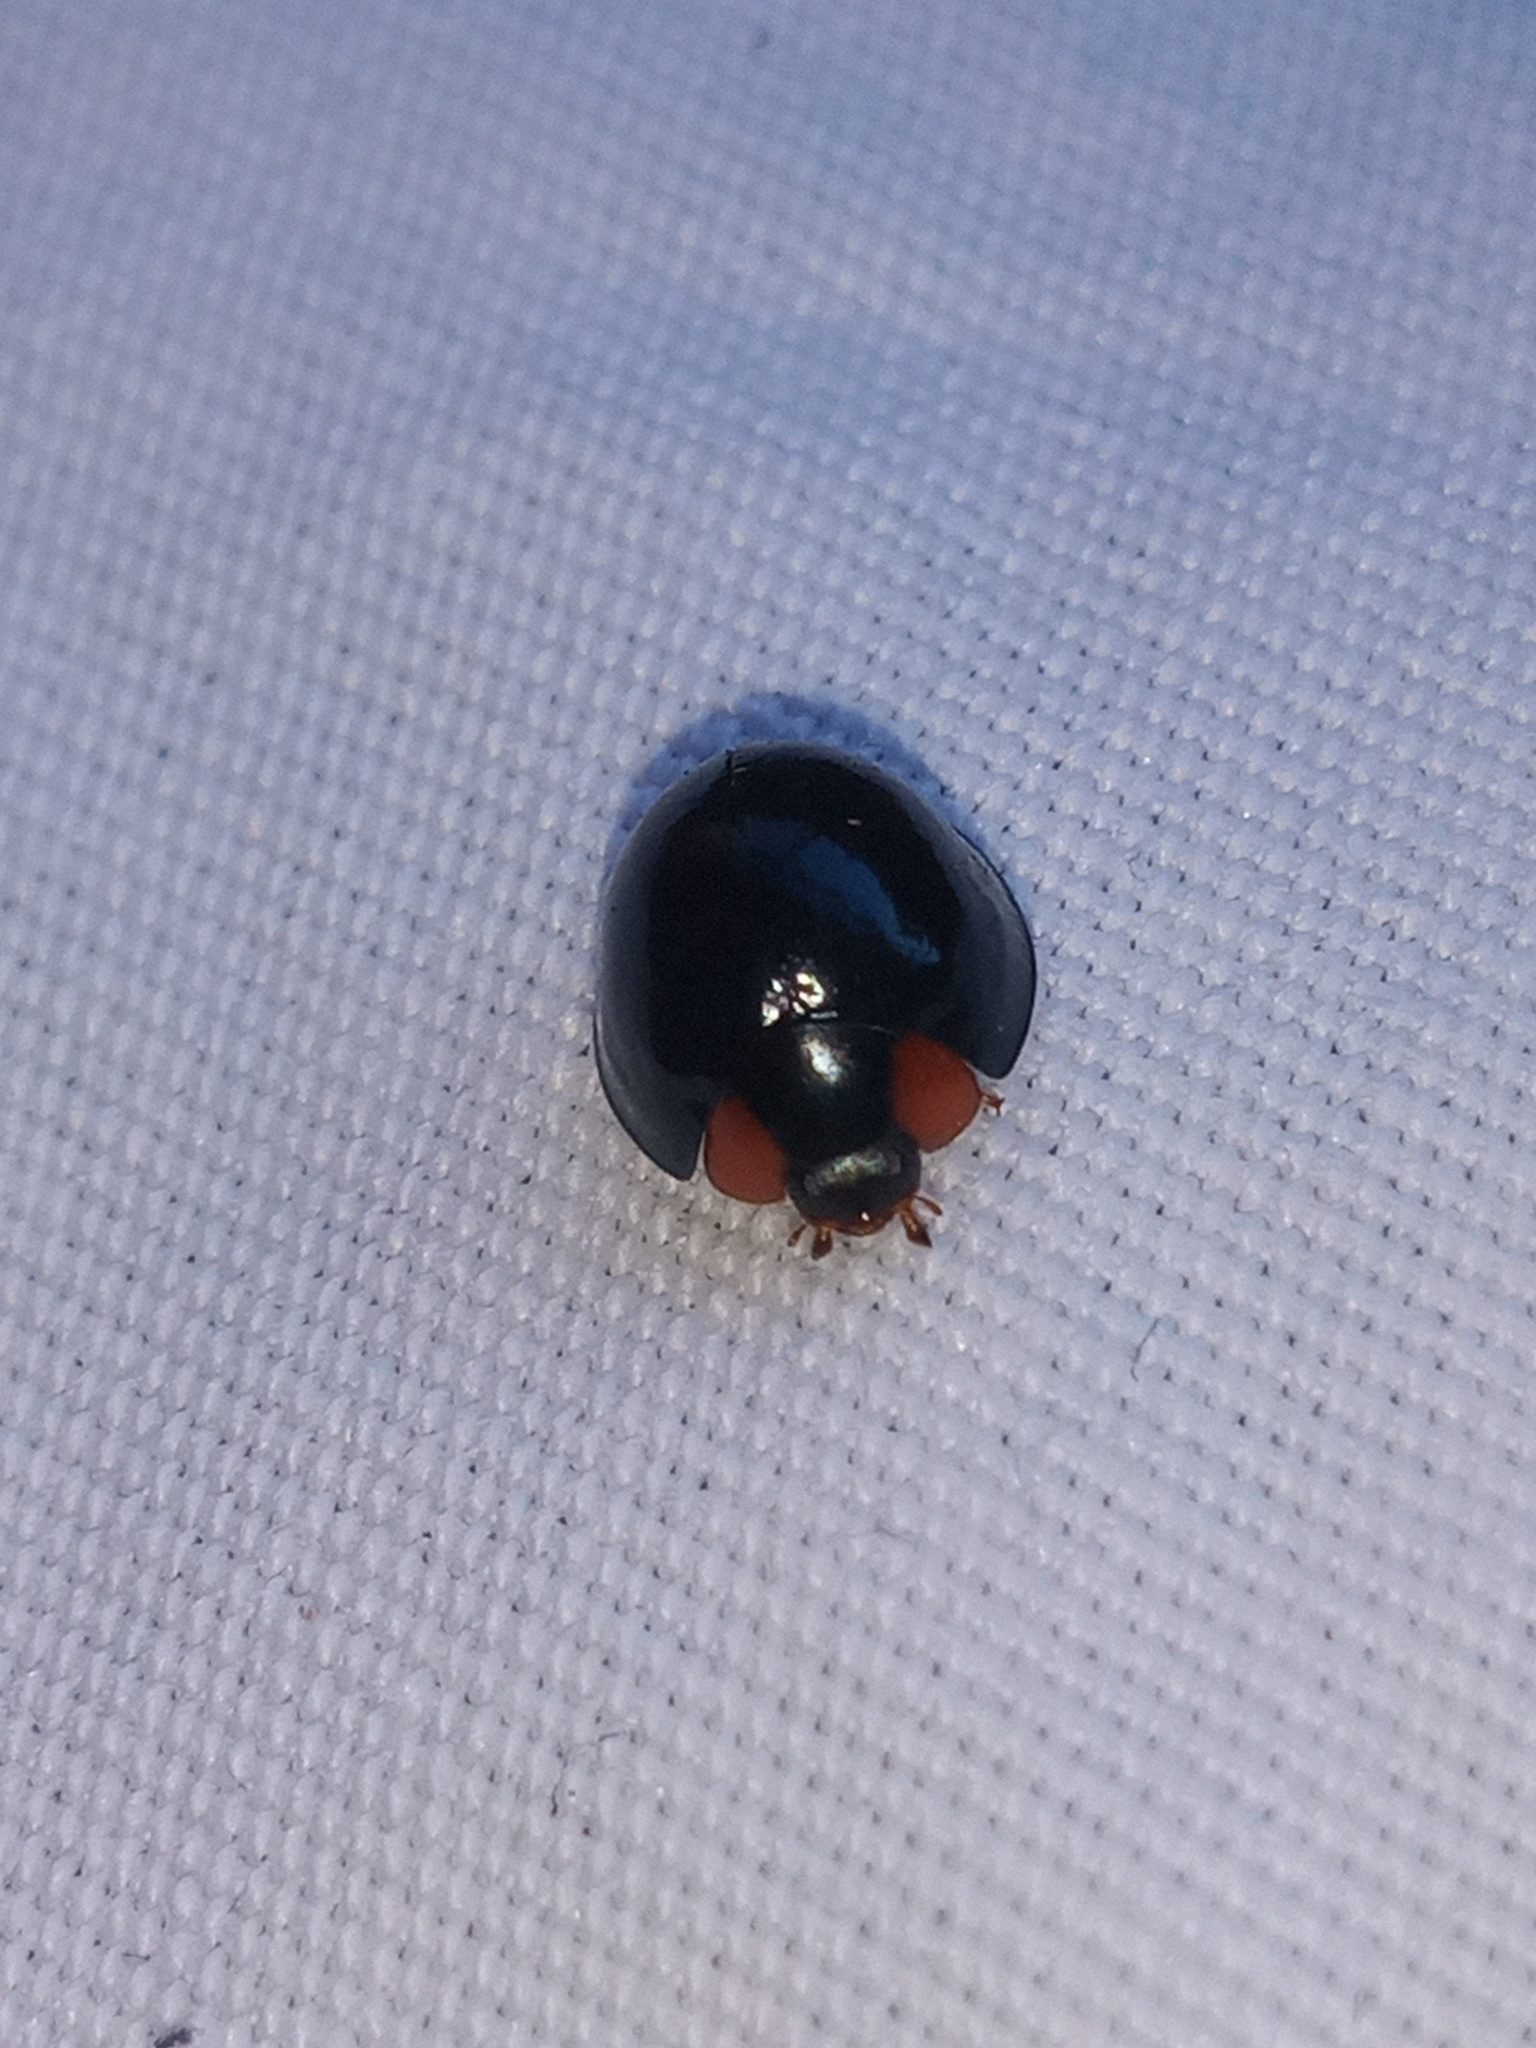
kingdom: Animalia
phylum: Arthropoda
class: Insecta
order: Coleoptera
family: Coccinellidae
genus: Curinus
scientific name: Curinus coeruleus
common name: Ladybird beetle
